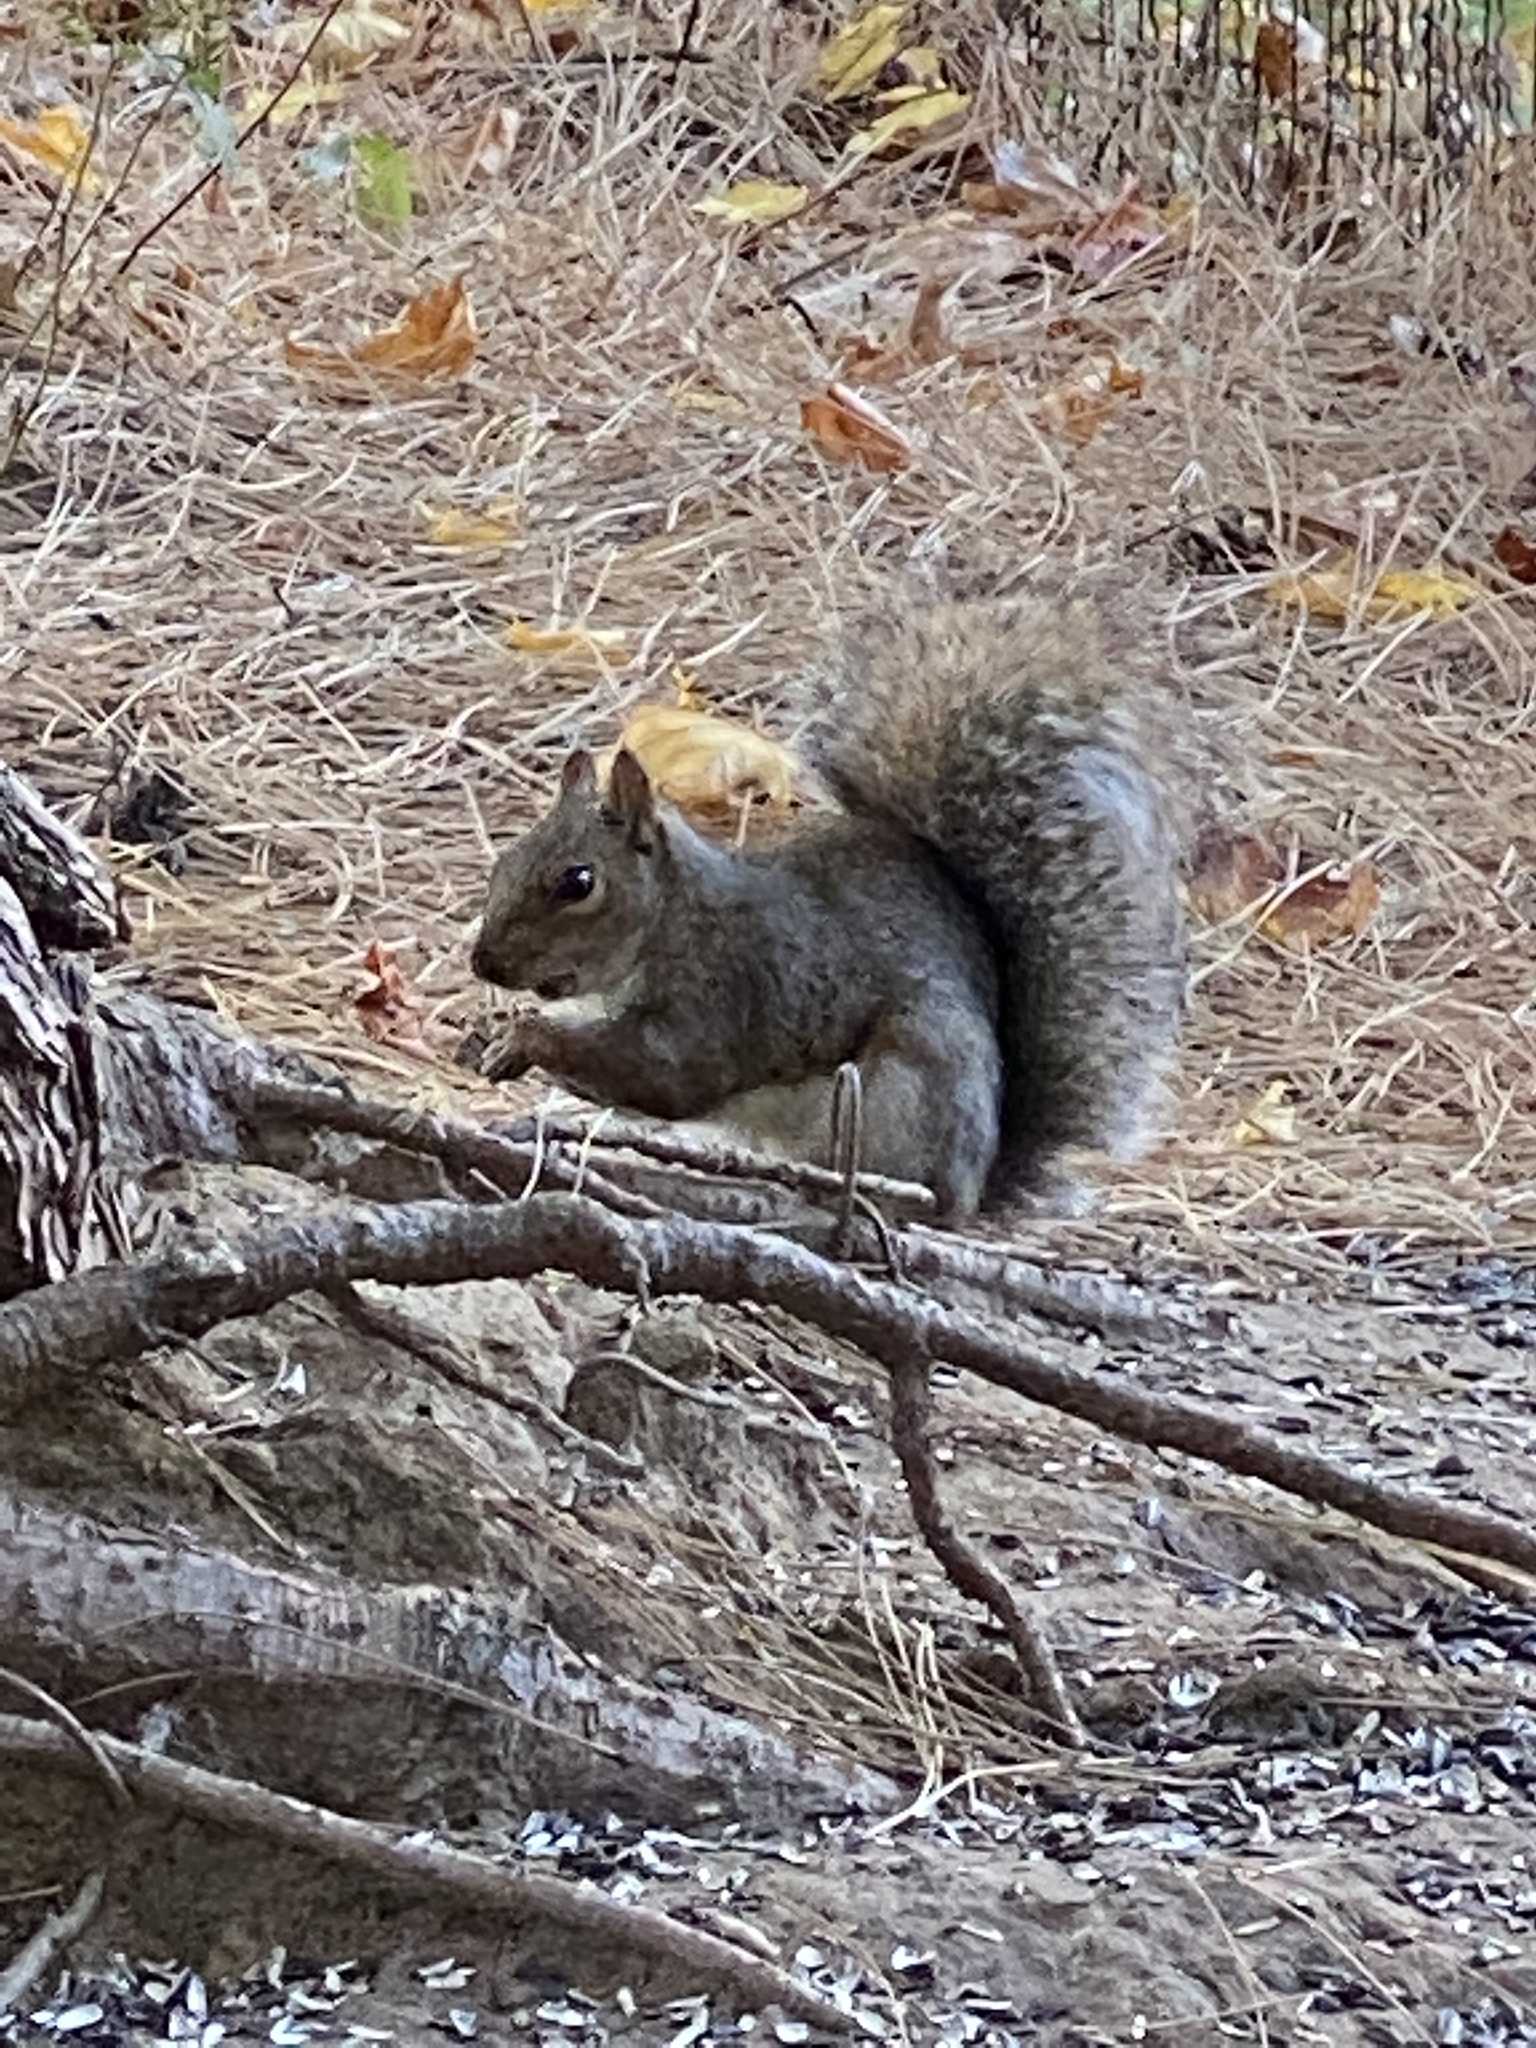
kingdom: Animalia
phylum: Chordata
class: Mammalia
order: Rodentia
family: Sciuridae
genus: Sciurus
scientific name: Sciurus carolinensis
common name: Eastern gray squirrel
